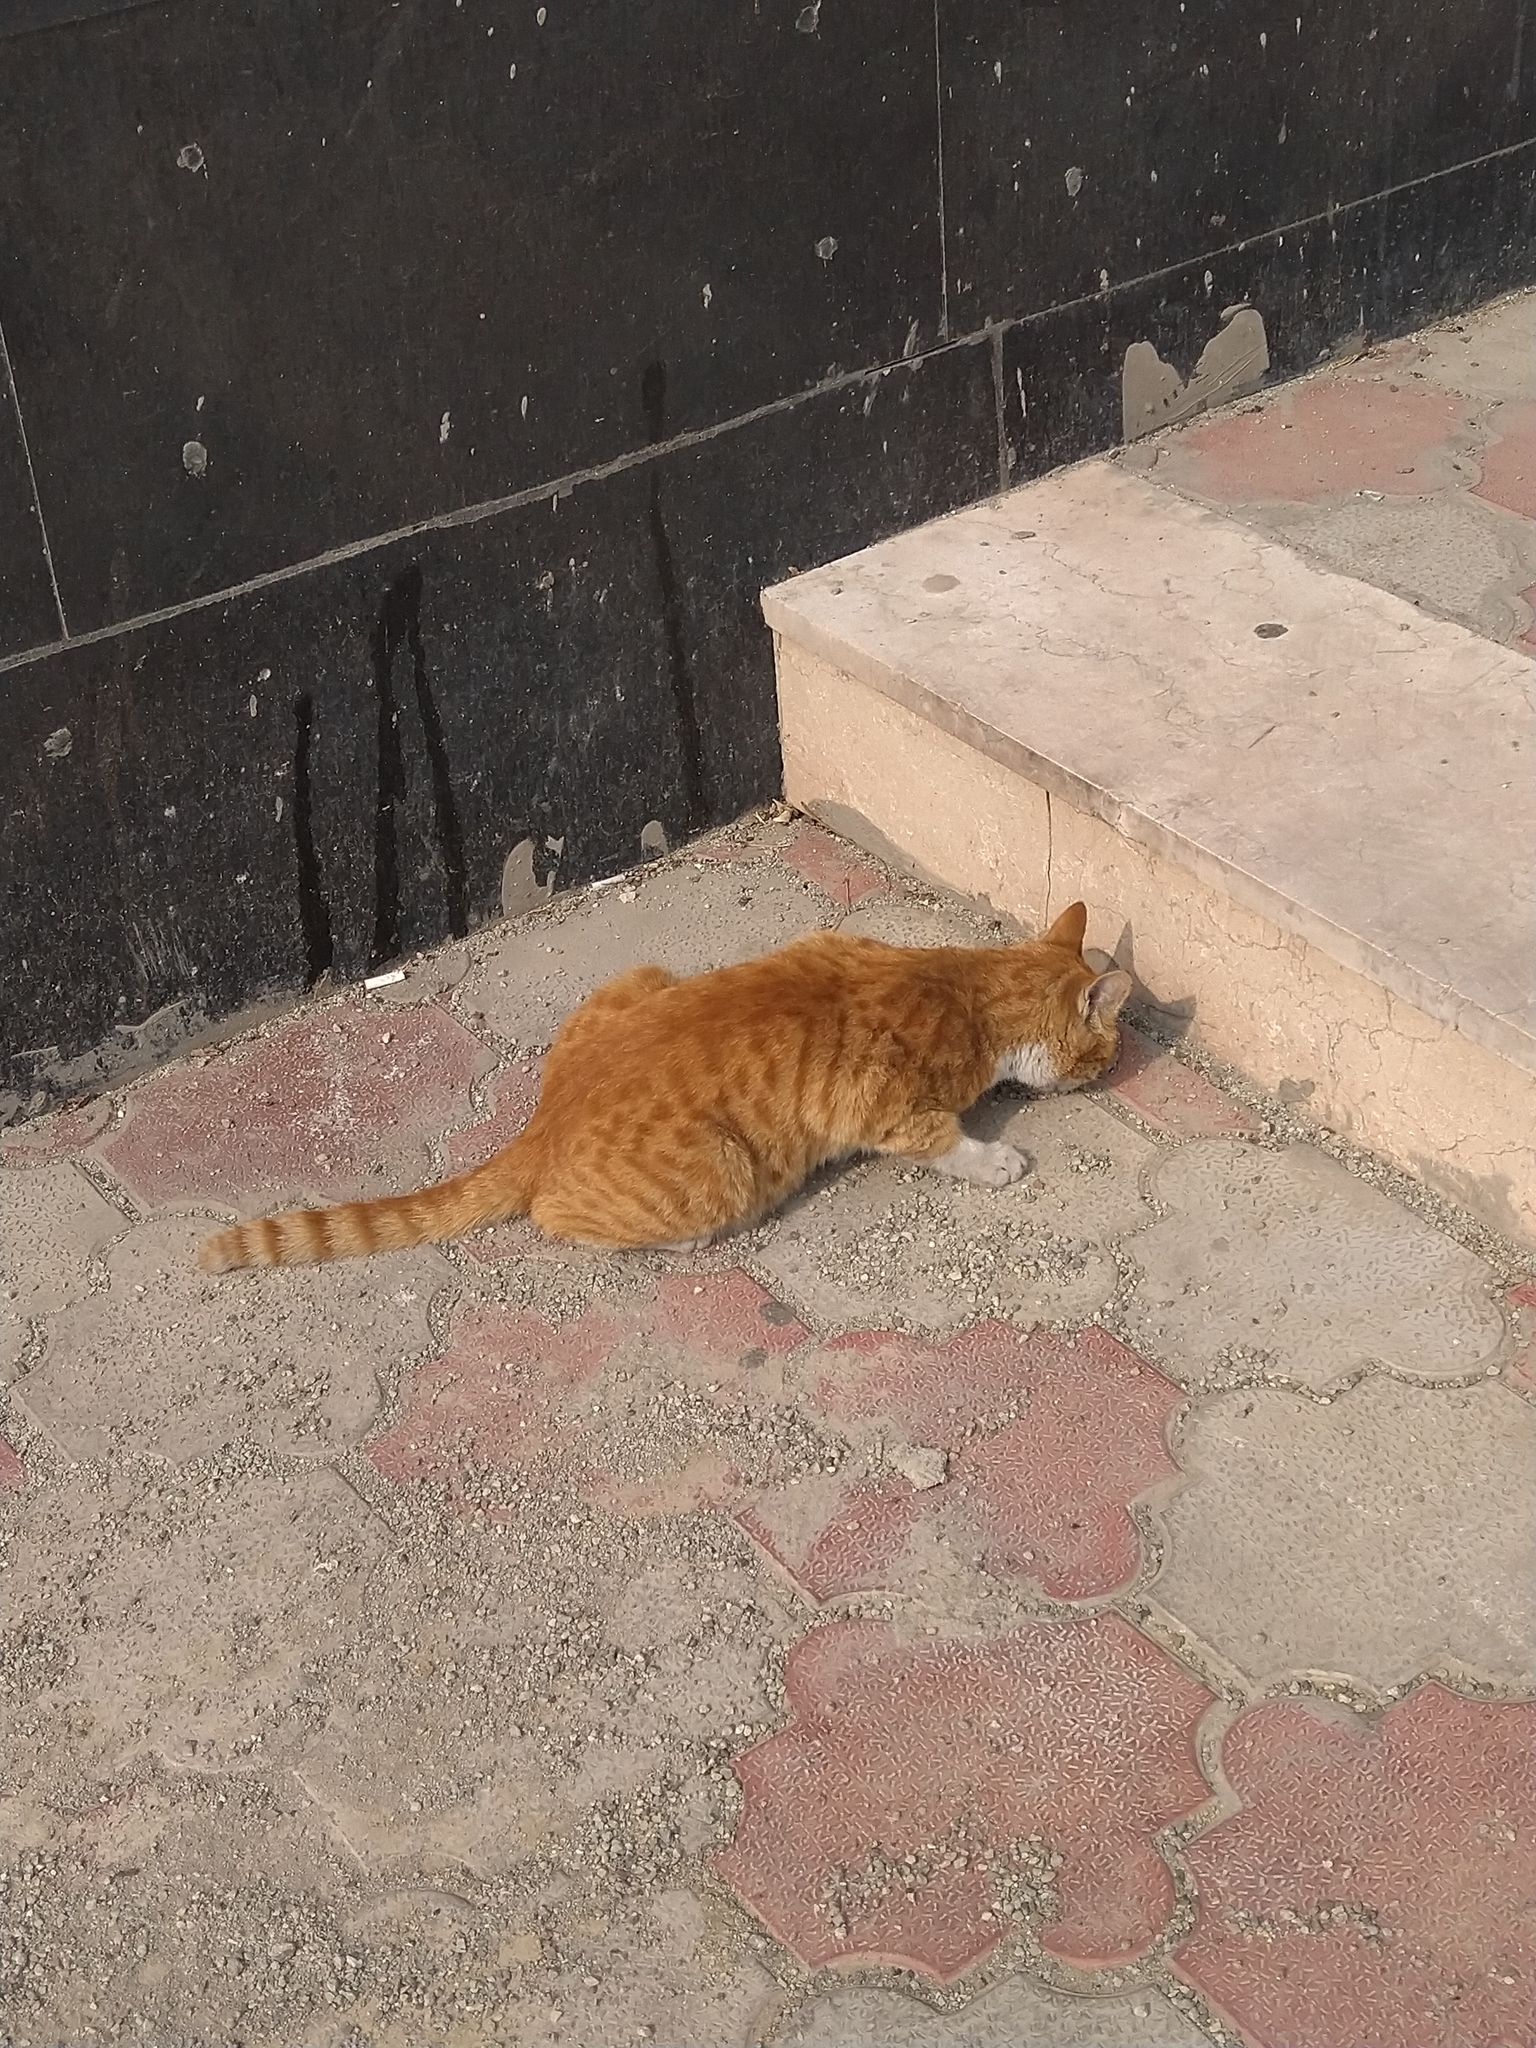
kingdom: Animalia
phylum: Chordata
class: Mammalia
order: Carnivora
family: Felidae
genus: Felis
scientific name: Felis catus
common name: Domestic cat
